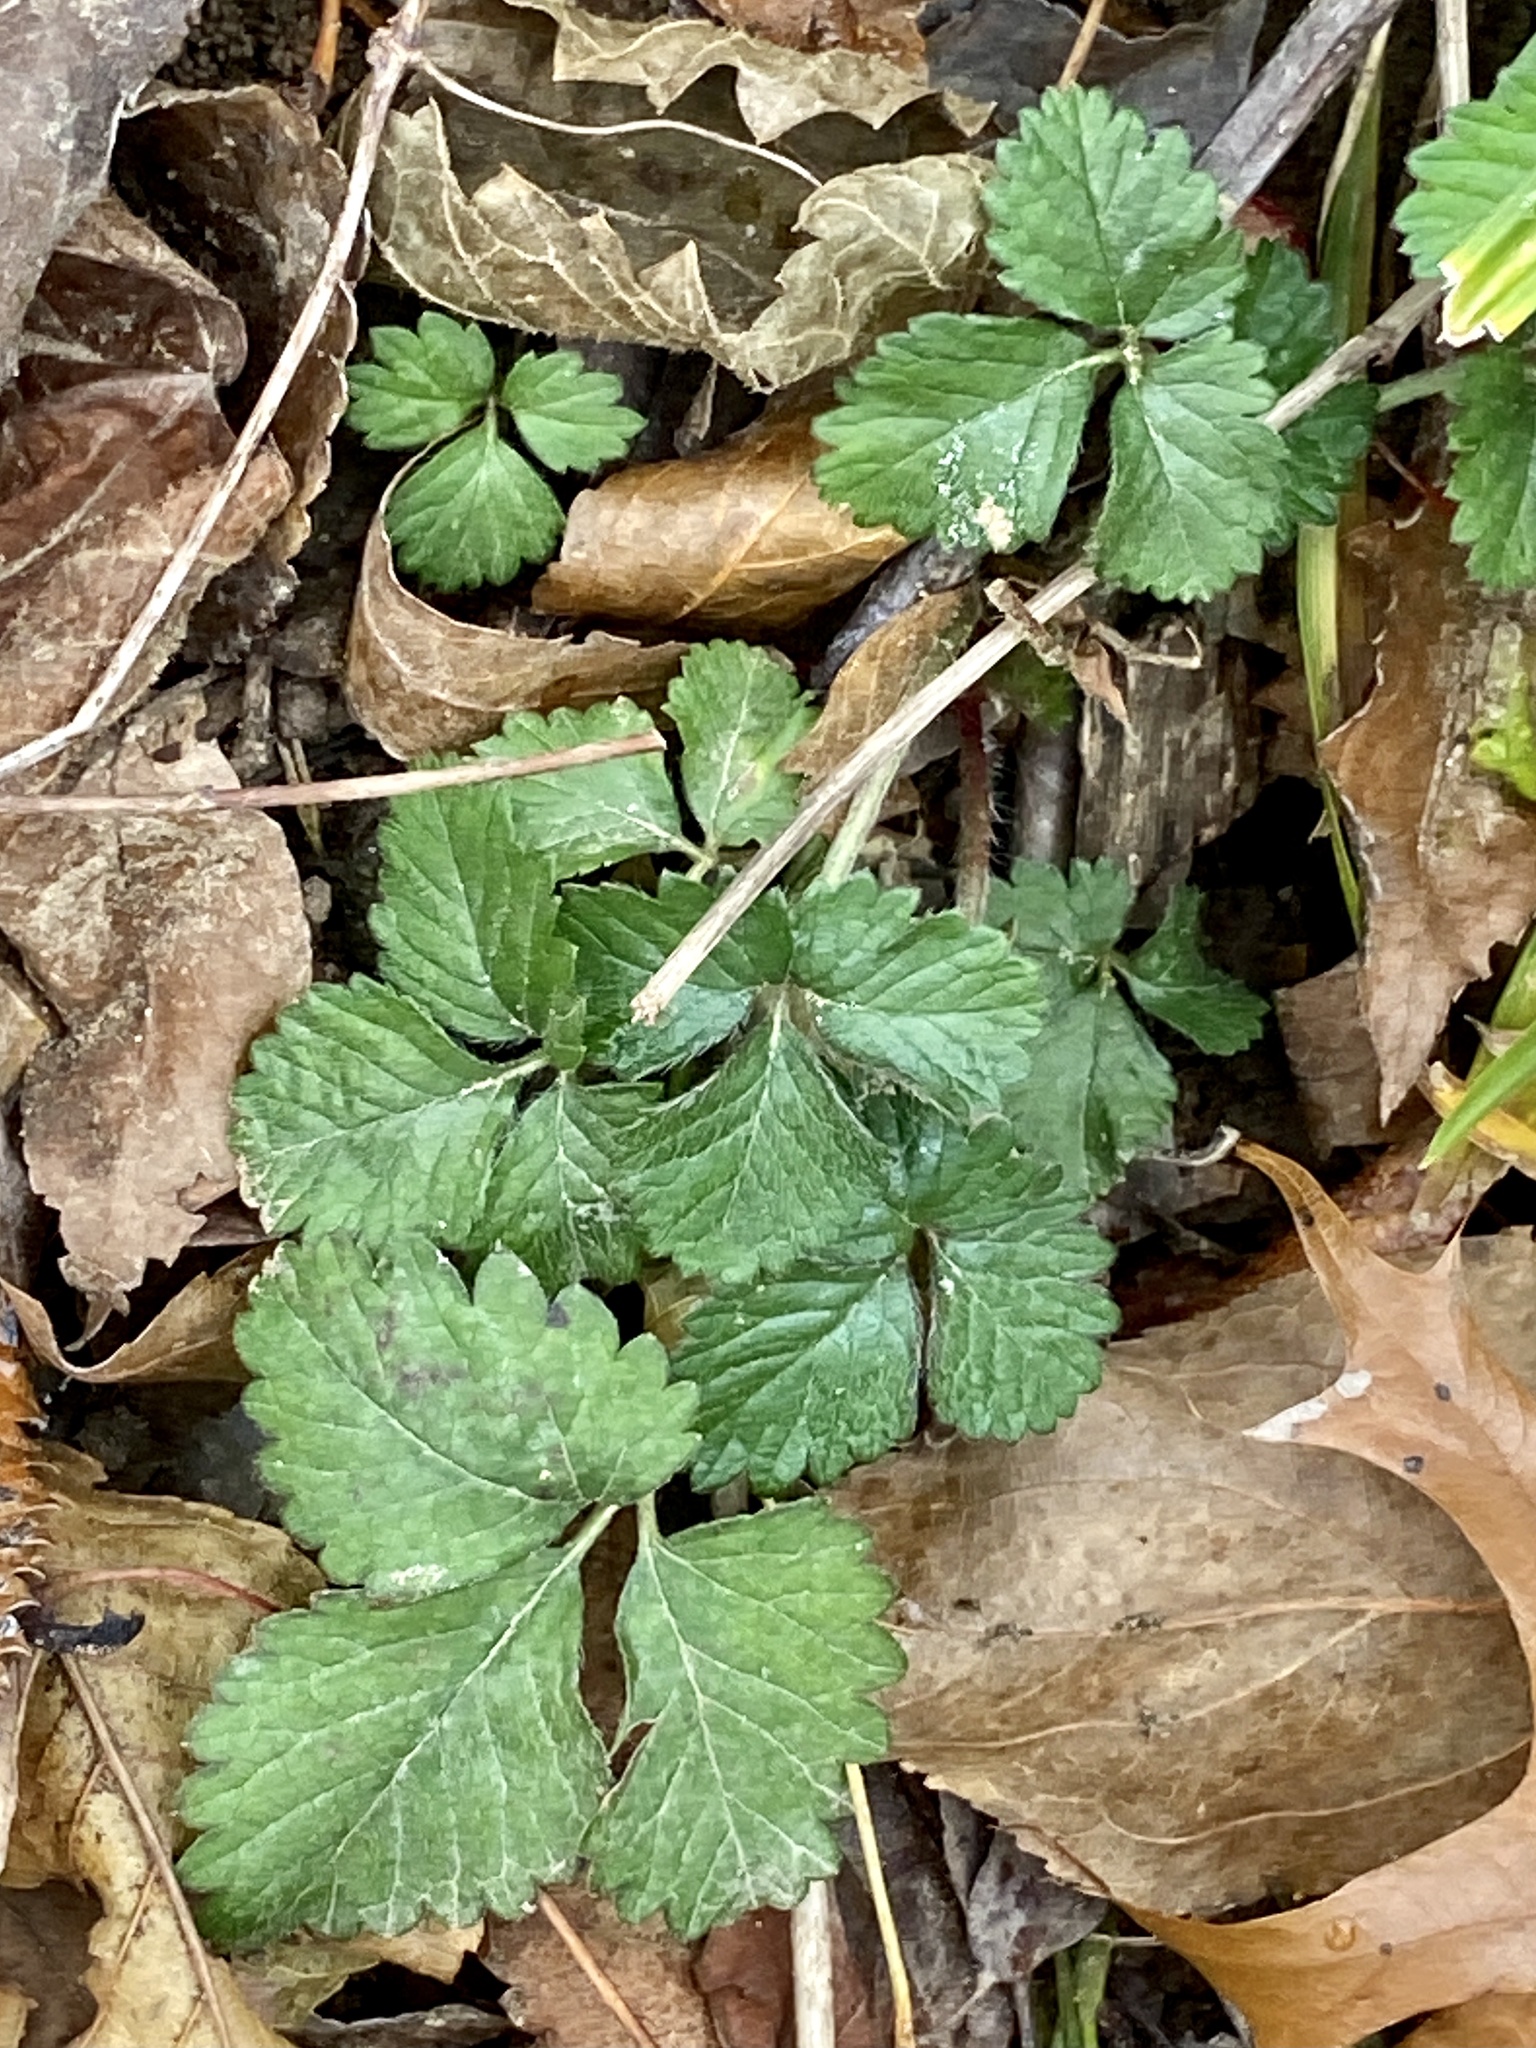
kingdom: Plantae
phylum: Tracheophyta
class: Magnoliopsida
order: Rosales
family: Rosaceae
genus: Potentilla
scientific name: Potentilla indica
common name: Yellow-flowered strawberry
